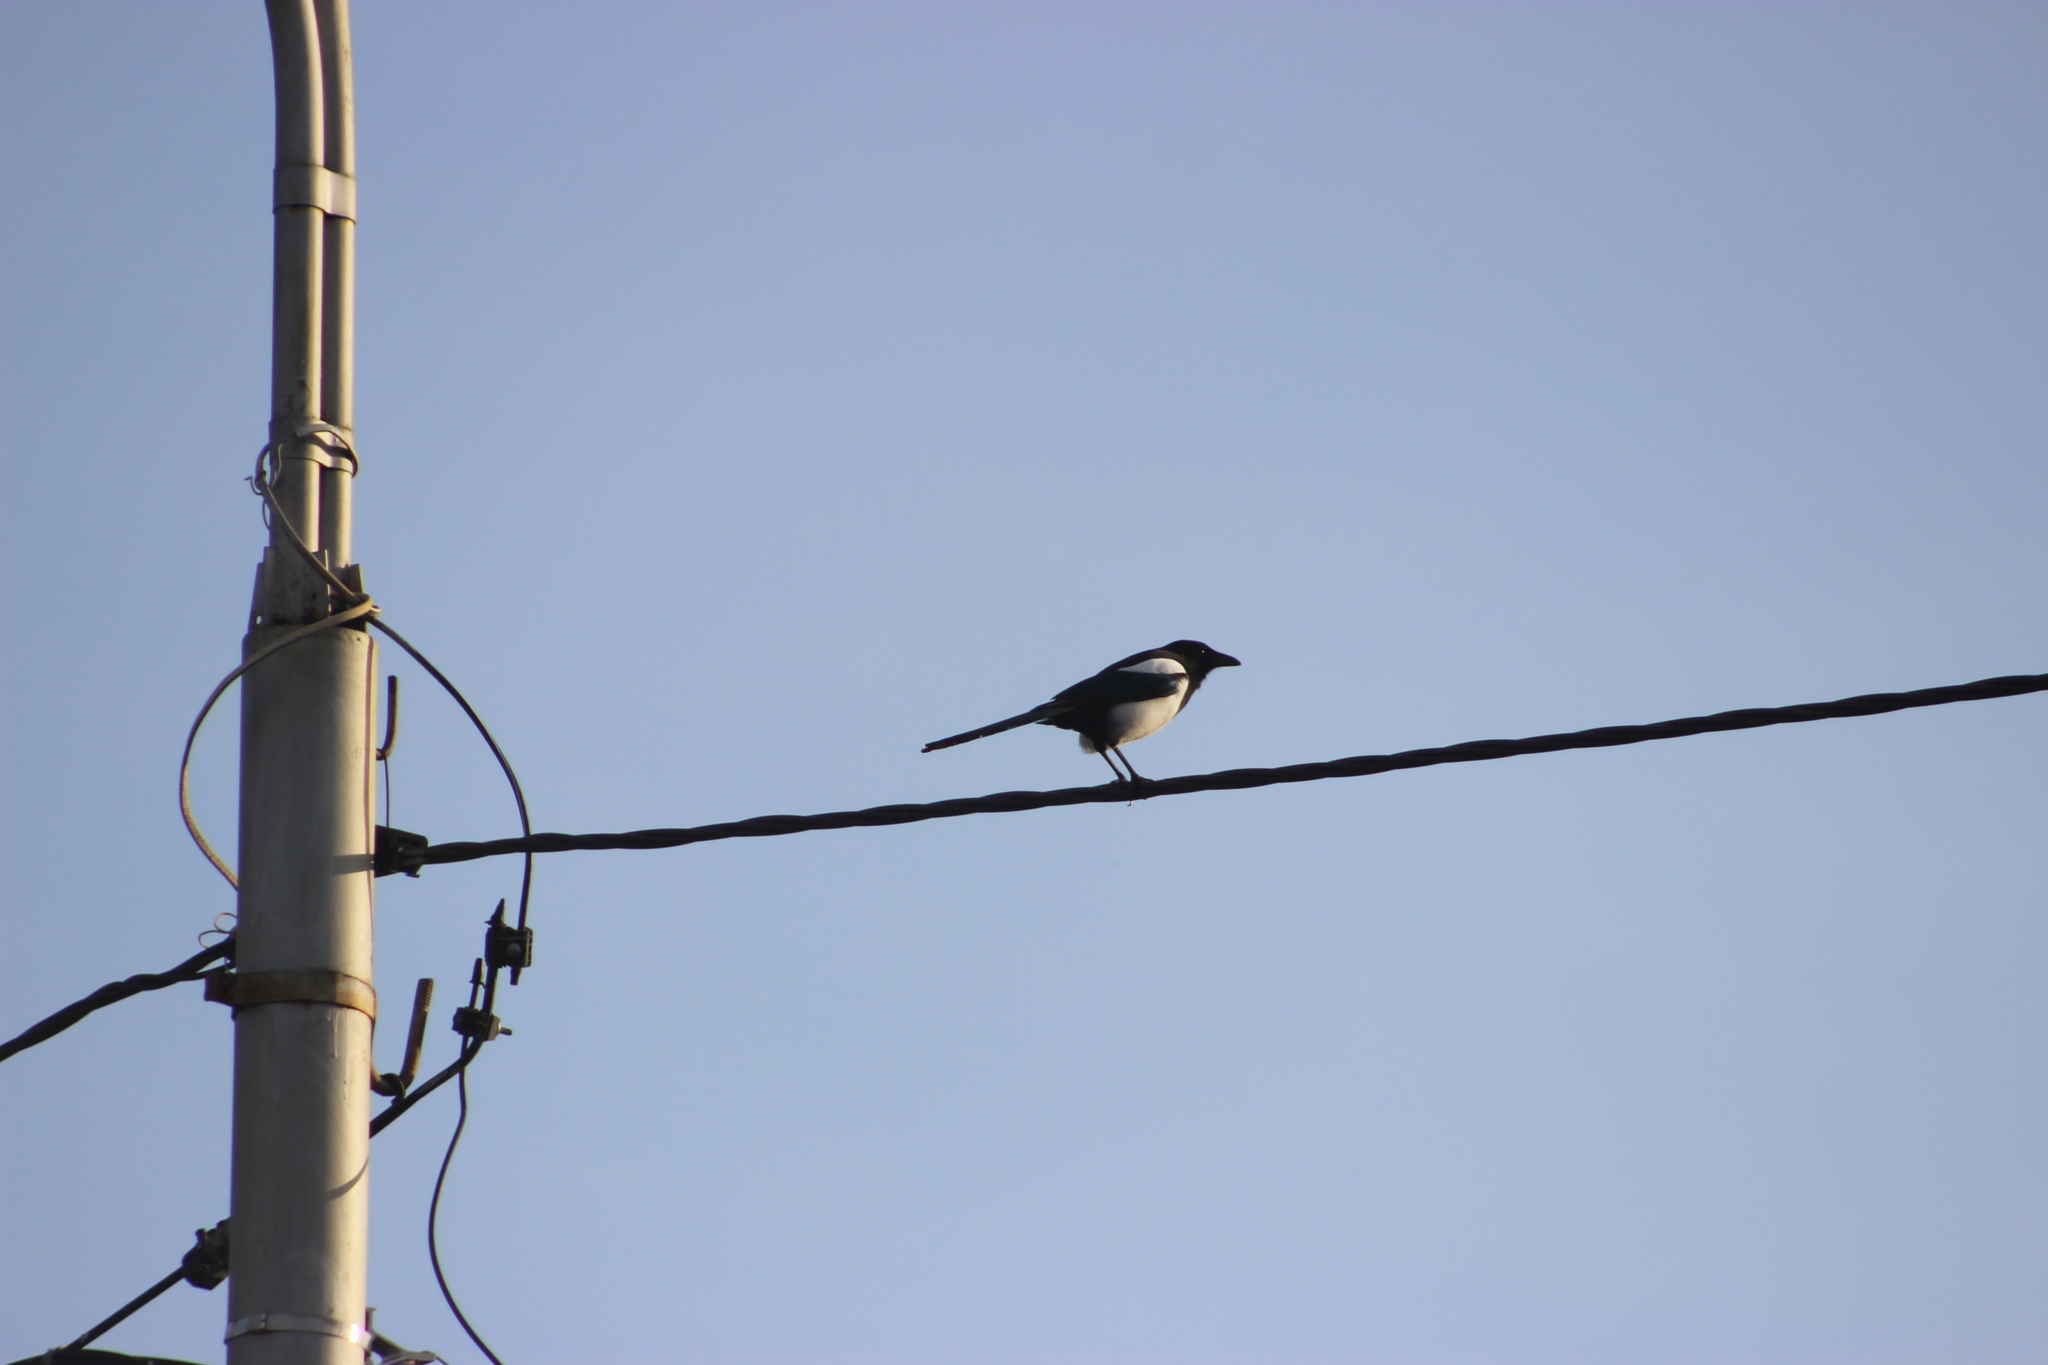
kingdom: Animalia
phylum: Chordata
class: Aves
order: Passeriformes
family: Corvidae
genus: Pica
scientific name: Pica pica
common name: Eurasian magpie
